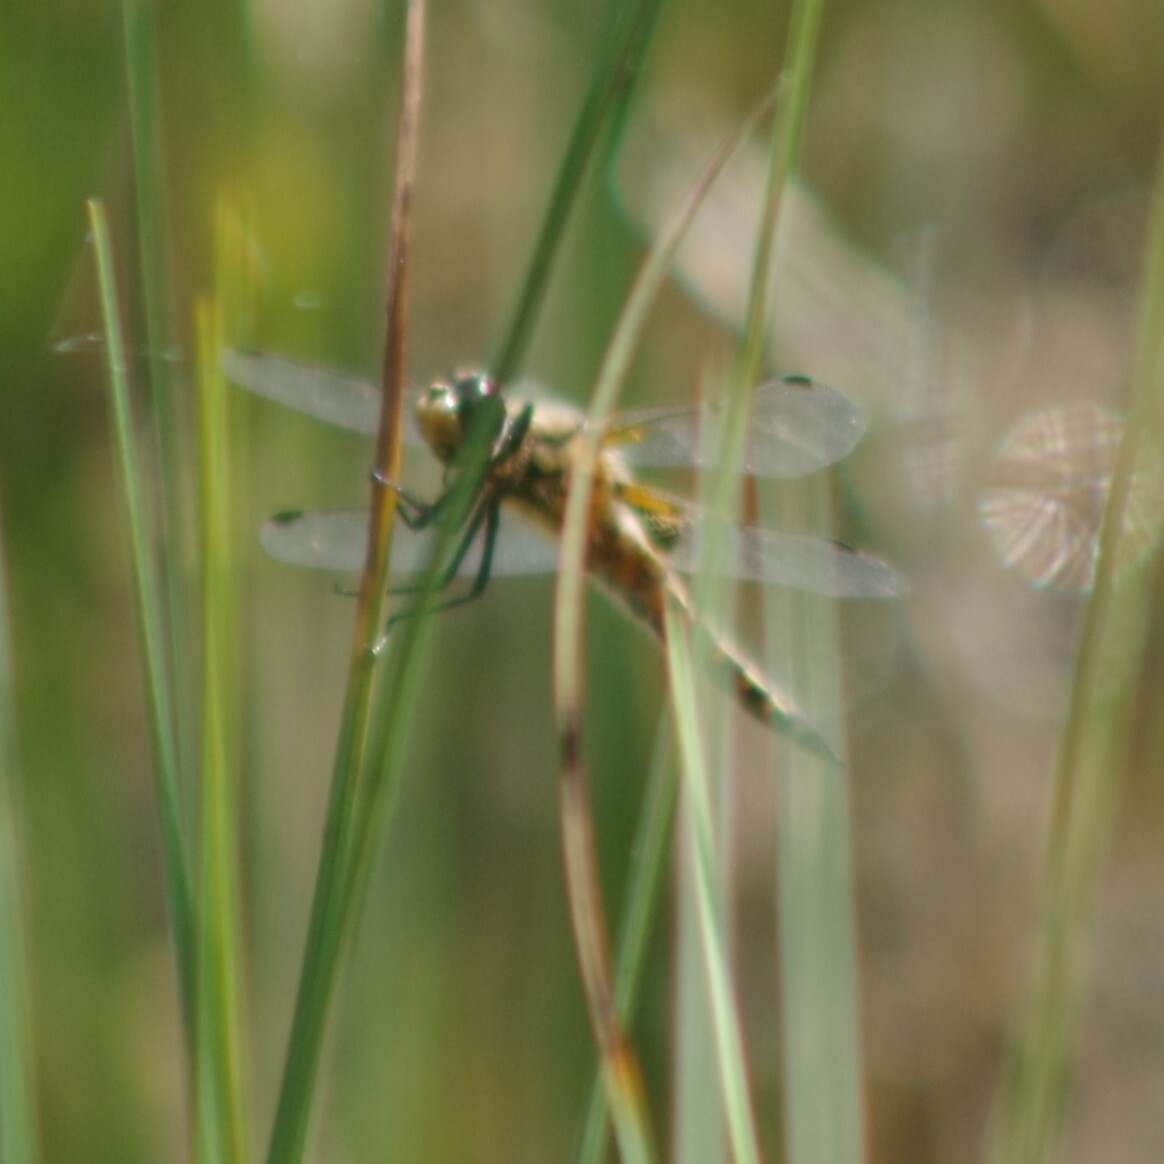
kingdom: Animalia
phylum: Arthropoda
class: Insecta
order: Odonata
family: Libellulidae
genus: Libellula
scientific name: Libellula quadrimaculata
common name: Four-spotted chaser
